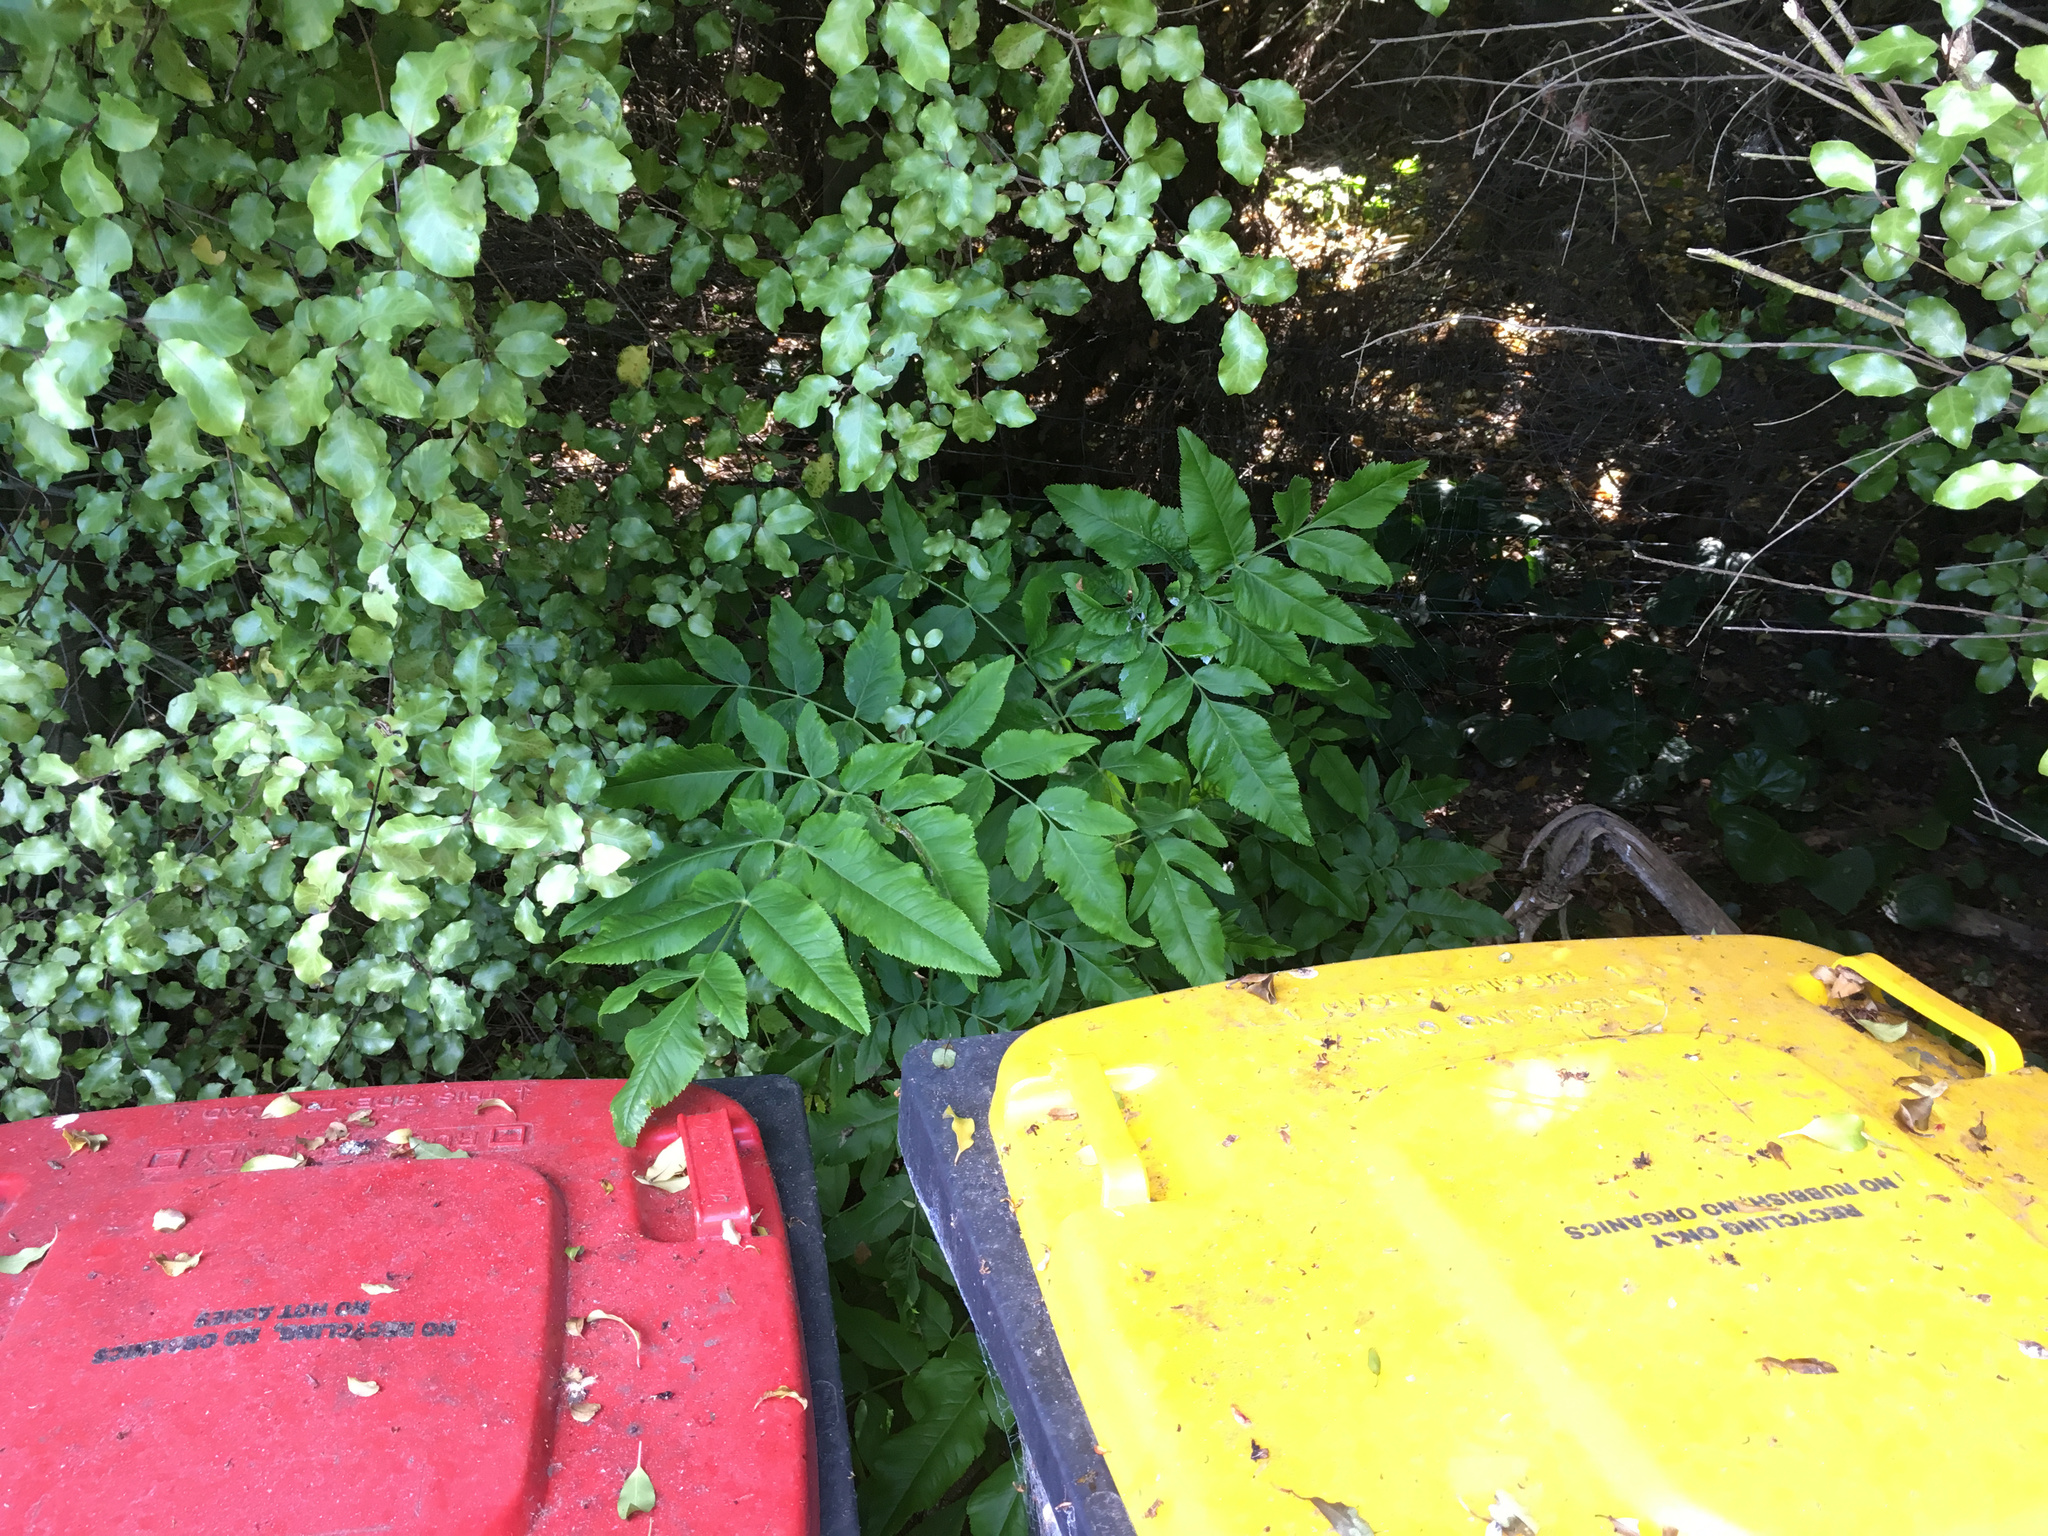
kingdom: Plantae
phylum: Tracheophyta
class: Magnoliopsida
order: Apiales
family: Apiaceae
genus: Daucus
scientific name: Daucus decipiens
